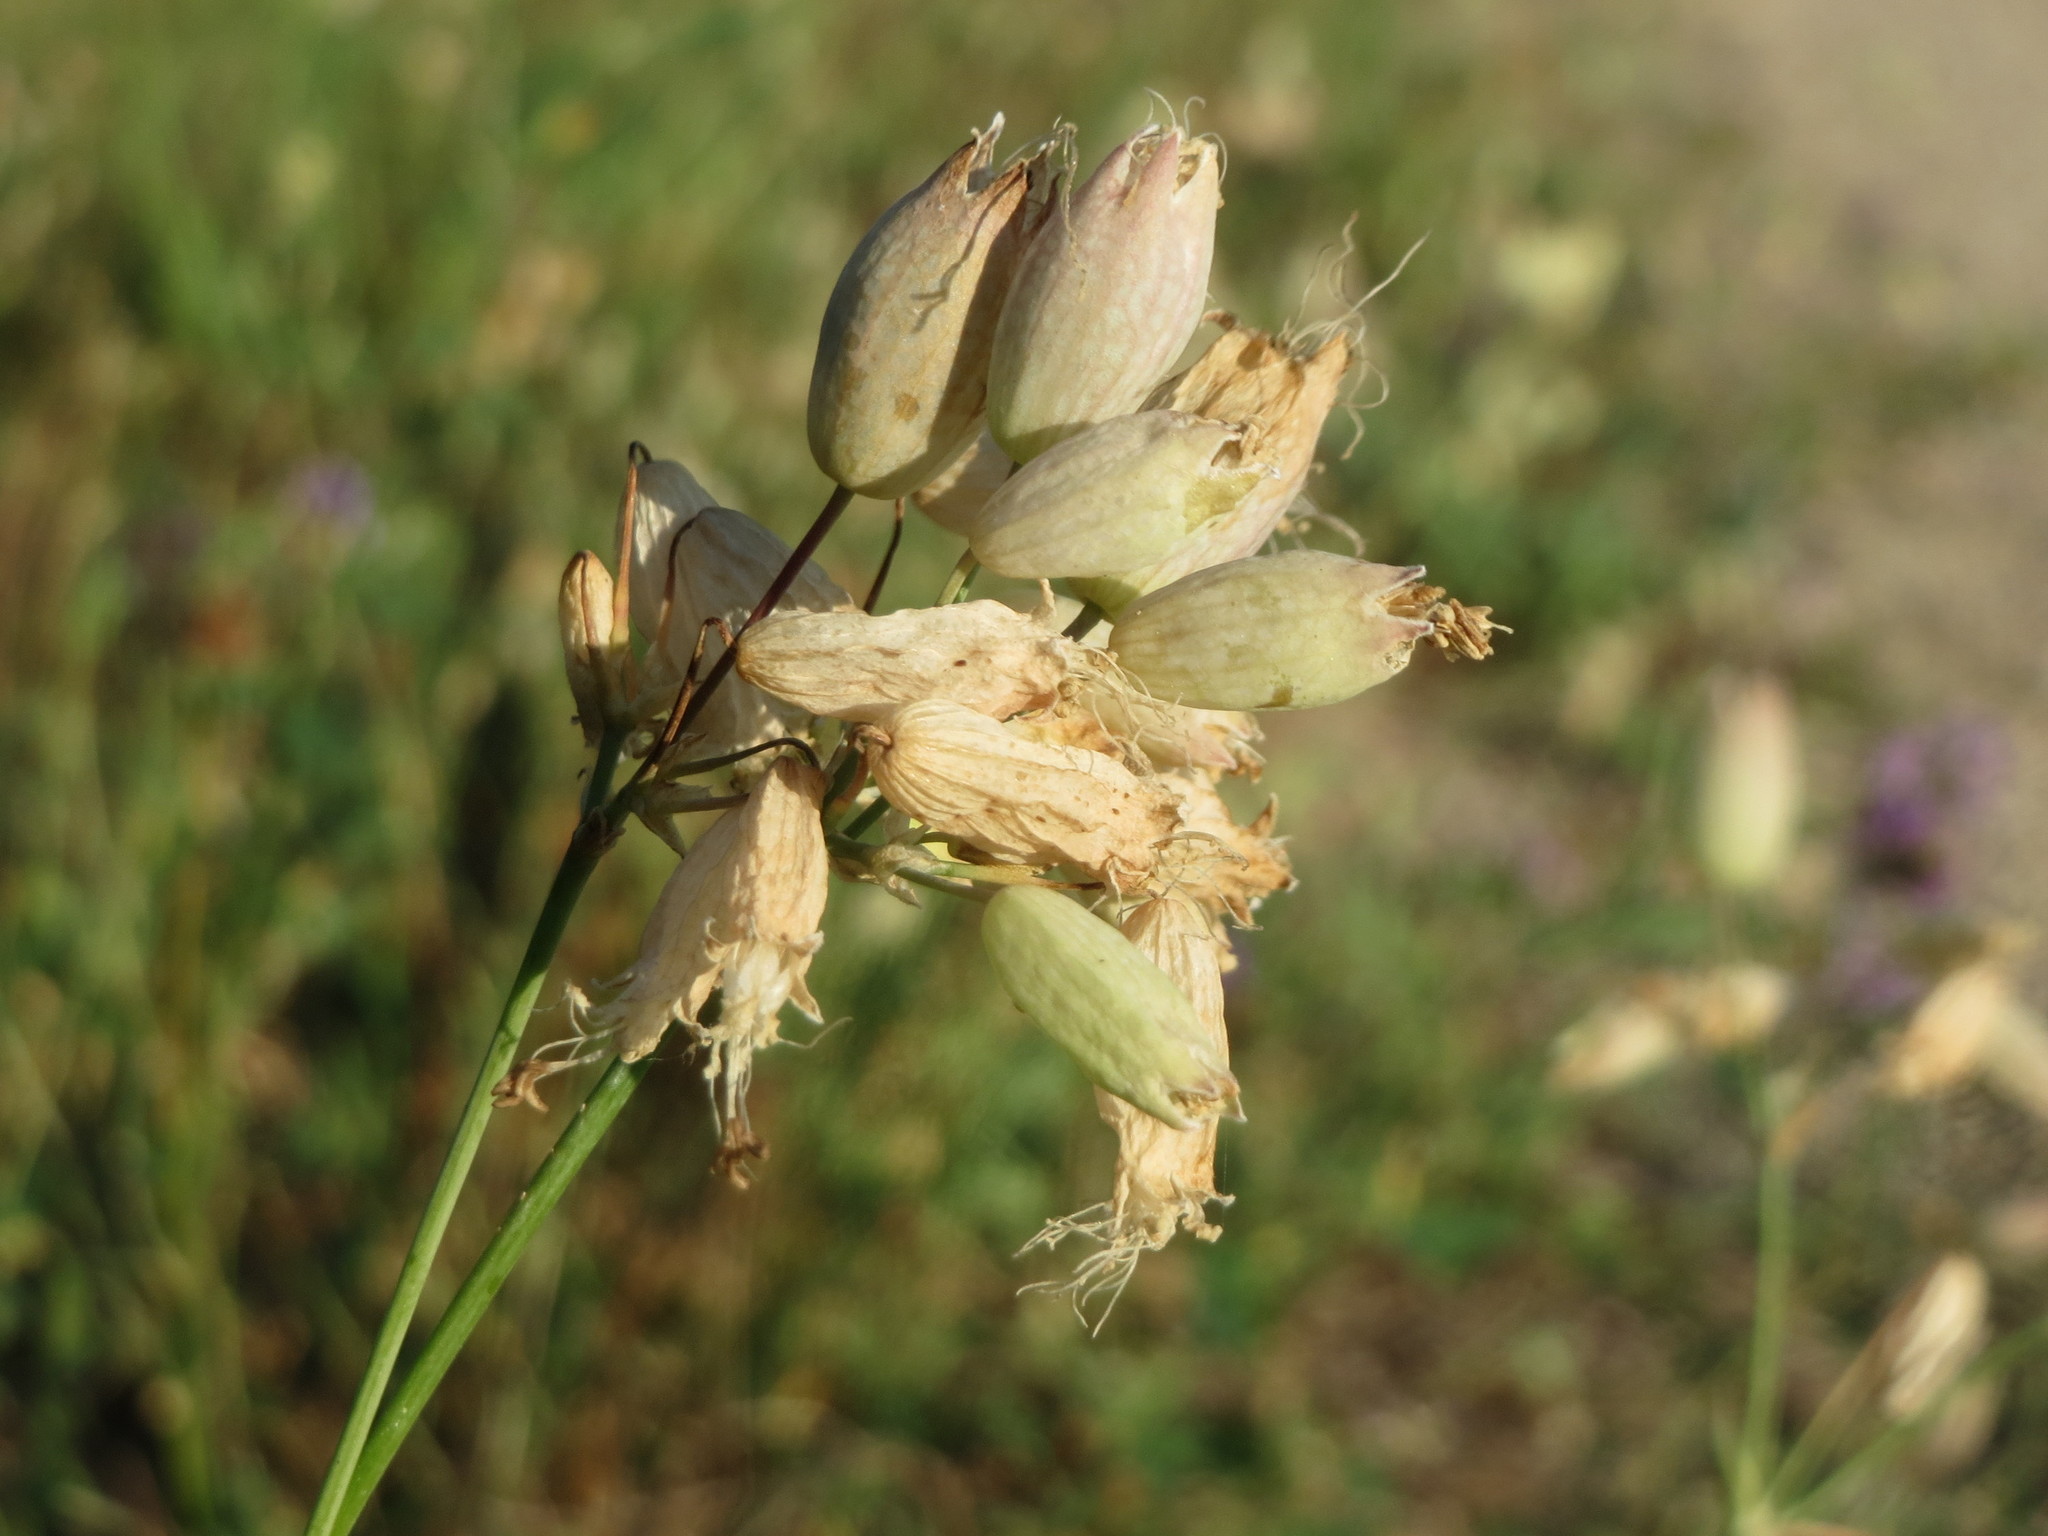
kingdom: Plantae
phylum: Tracheophyta
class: Magnoliopsida
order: Caryophyllales
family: Caryophyllaceae
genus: Silene
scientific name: Silene vulgaris
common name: Bladder campion
